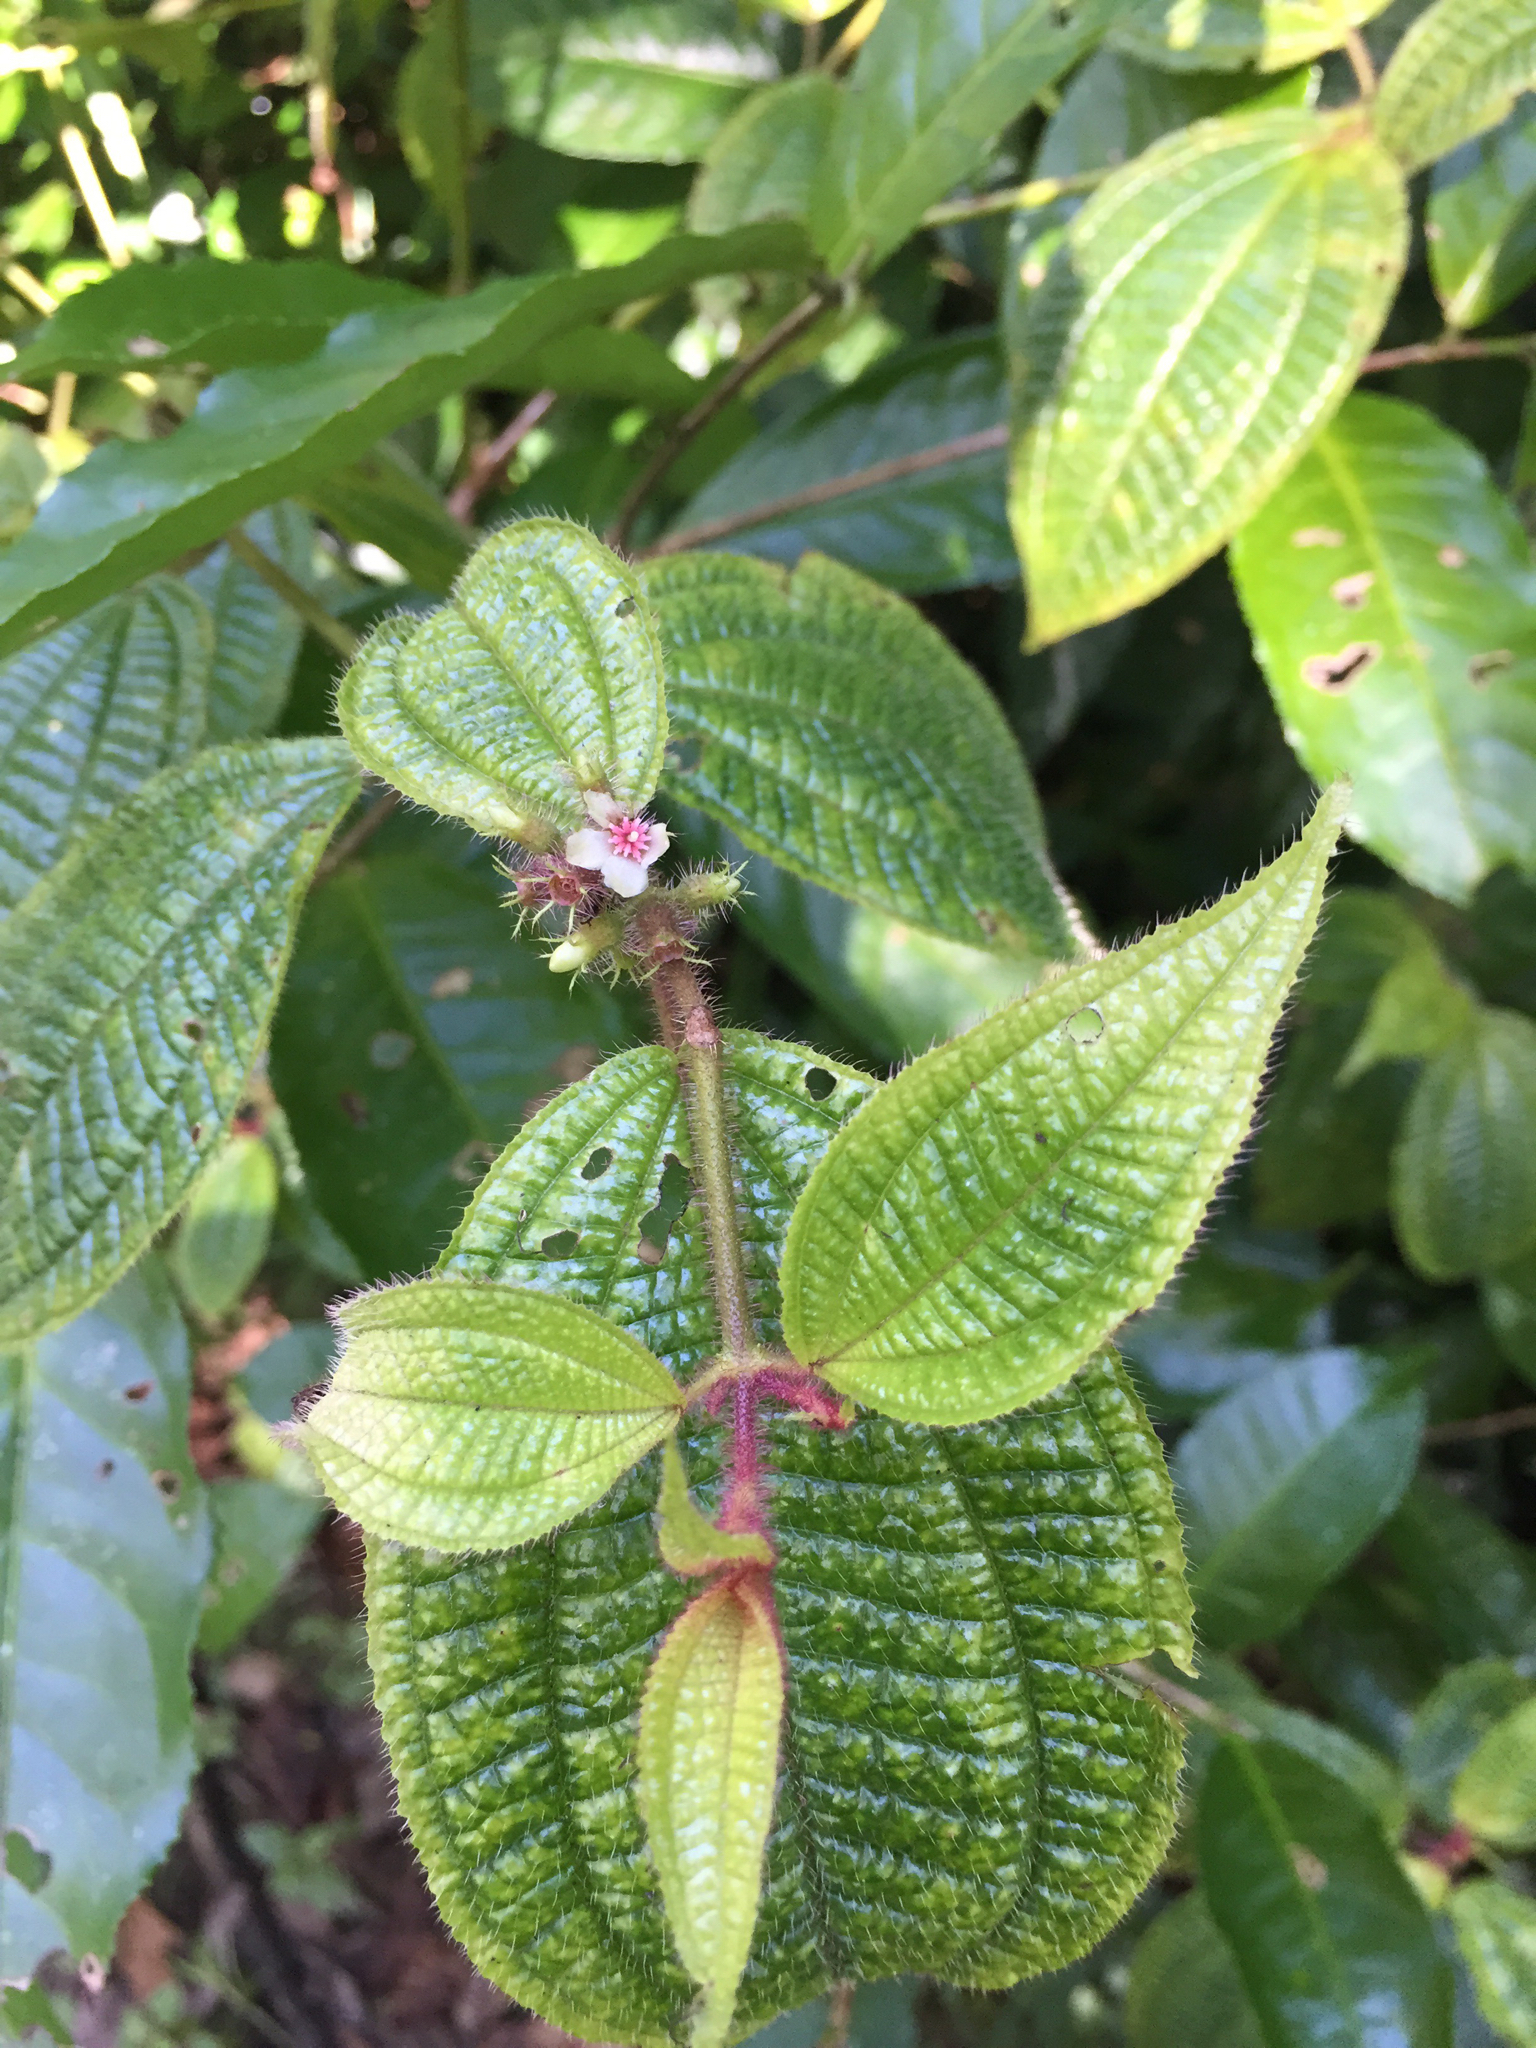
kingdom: Plantae
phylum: Tracheophyta
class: Magnoliopsida
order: Myrtales
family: Melastomataceae
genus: Miconia
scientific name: Miconia crenata
